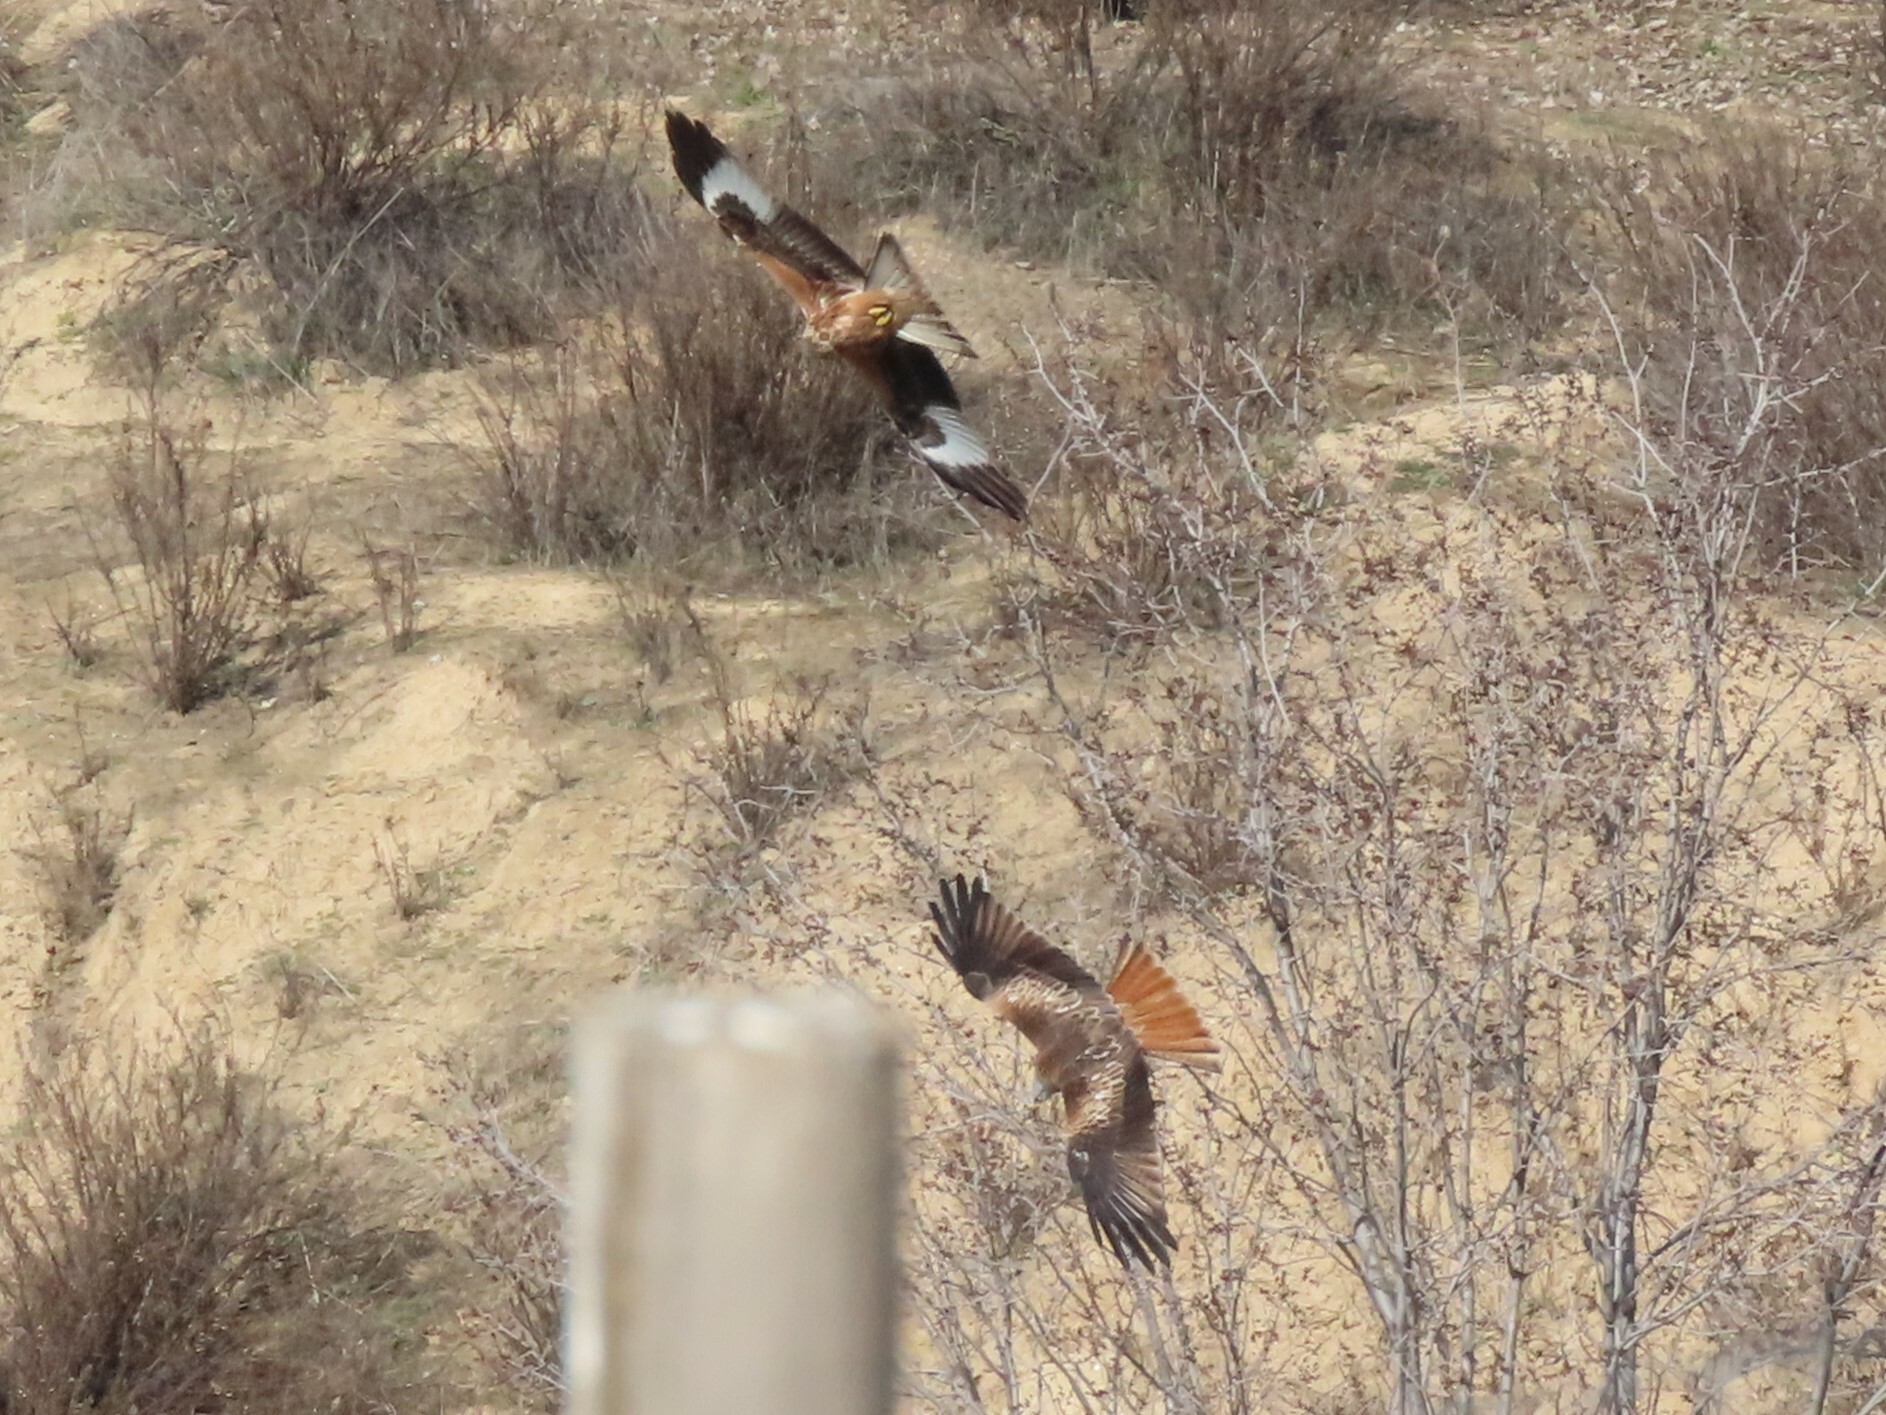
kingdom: Animalia
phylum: Chordata
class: Aves
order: Accipitriformes
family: Accipitridae
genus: Milvus
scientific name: Milvus milvus
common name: Red kite
